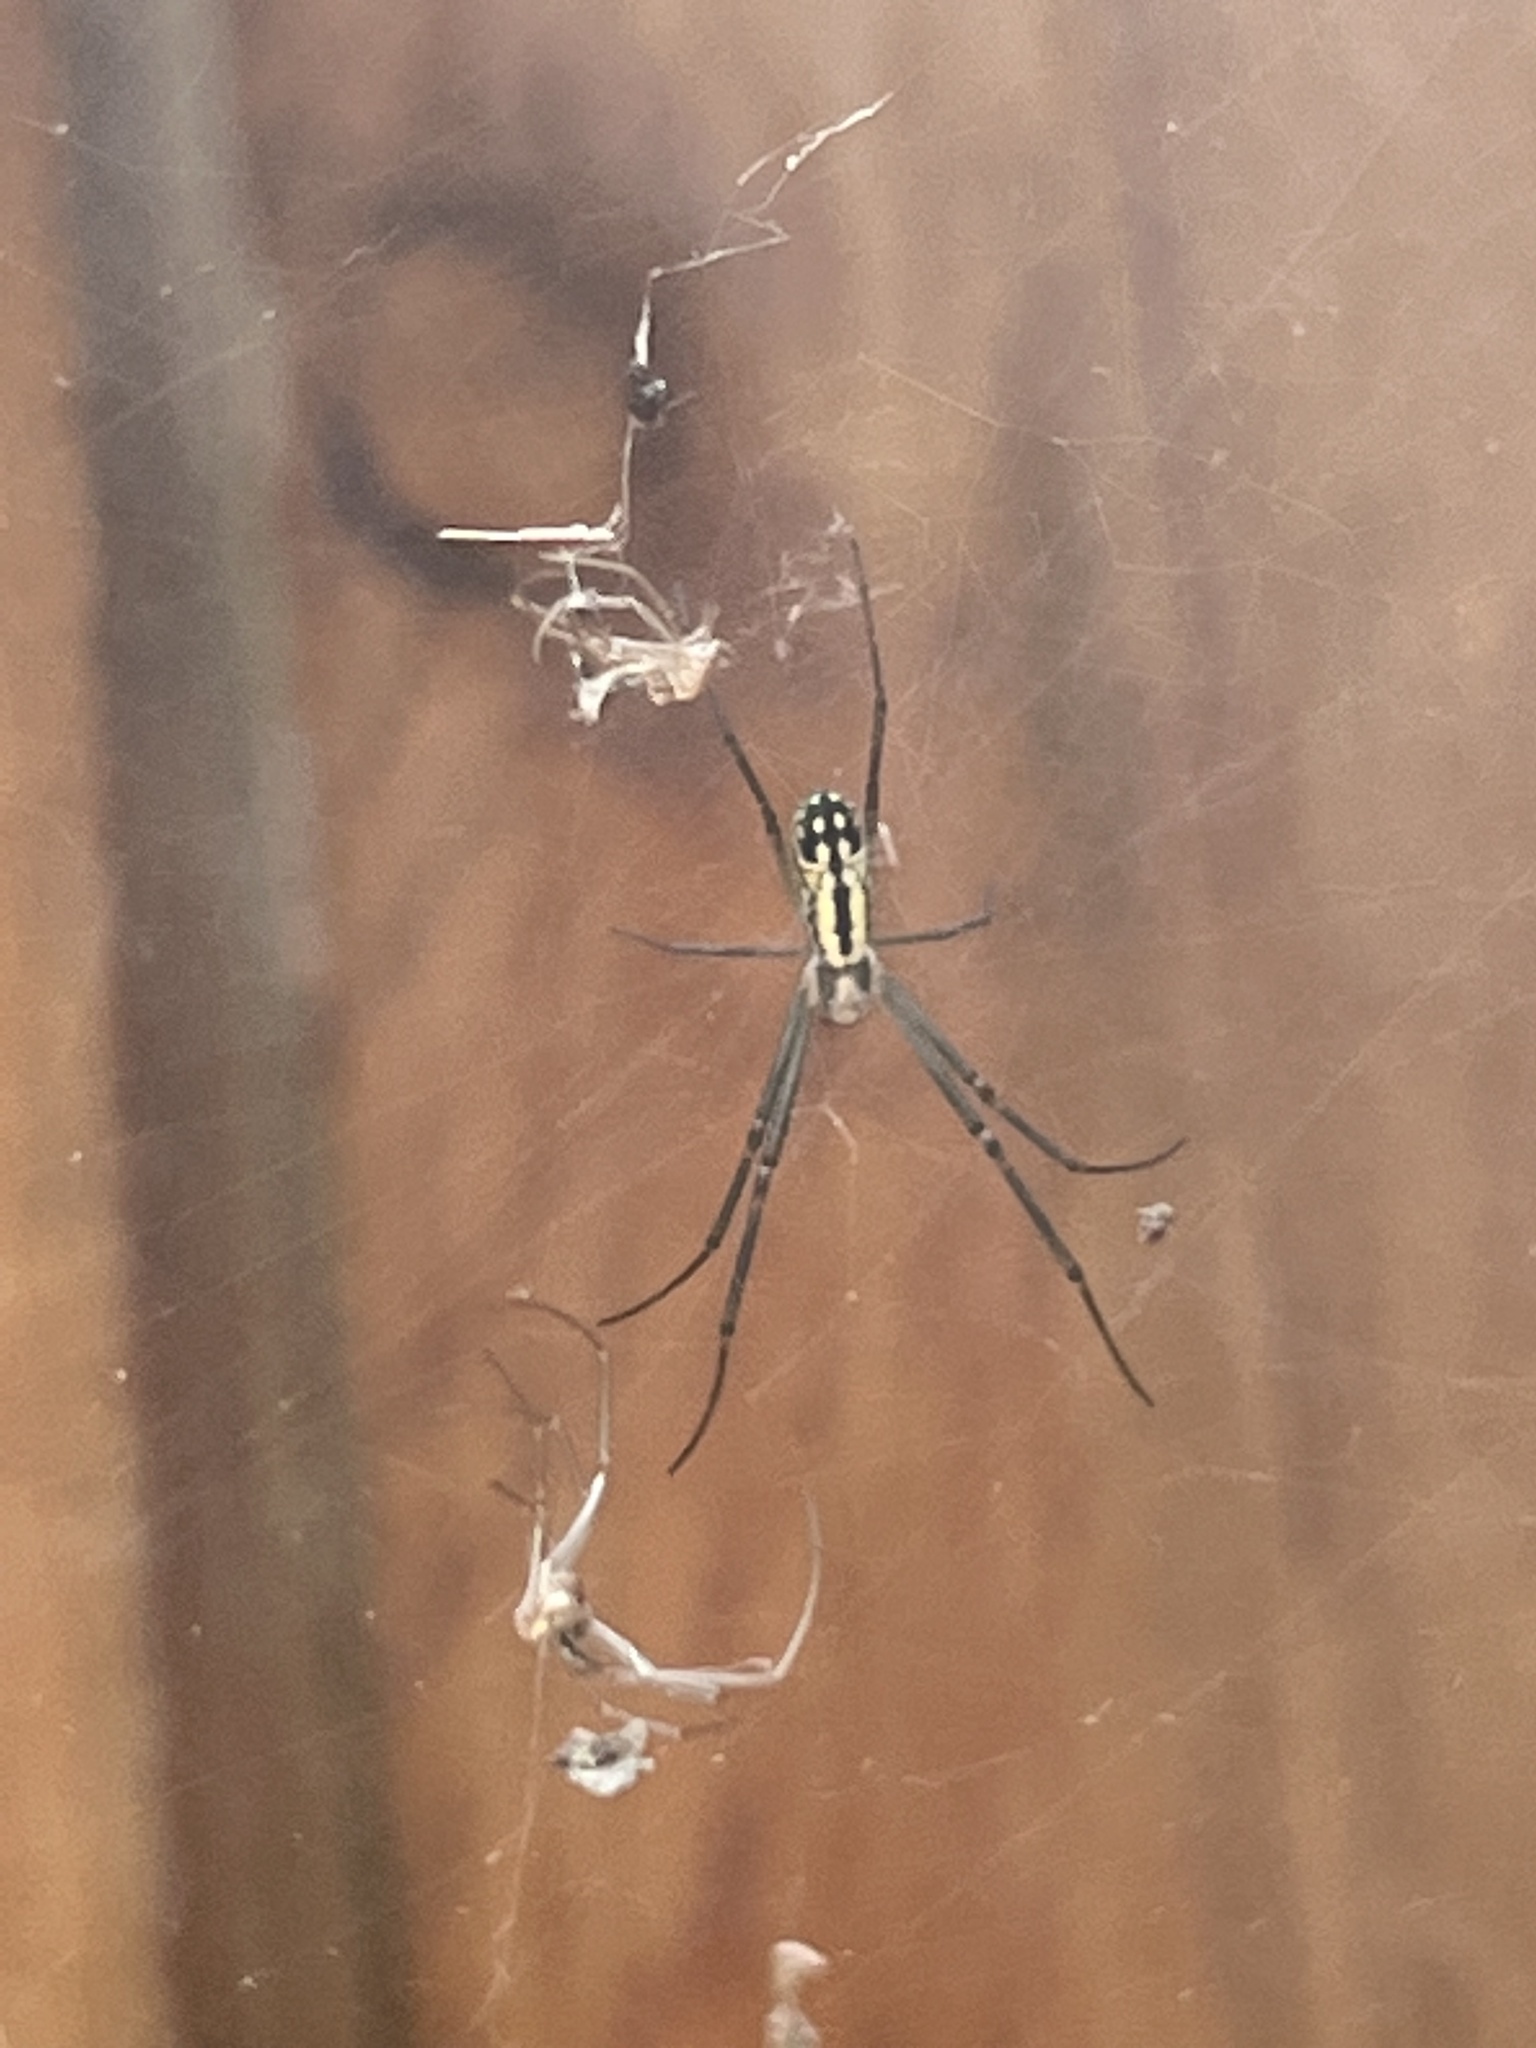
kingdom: Animalia
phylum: Arthropoda
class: Arachnida
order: Araneae
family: Araneidae
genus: Trichonephila
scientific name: Trichonephila clavata
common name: Jorō spider
